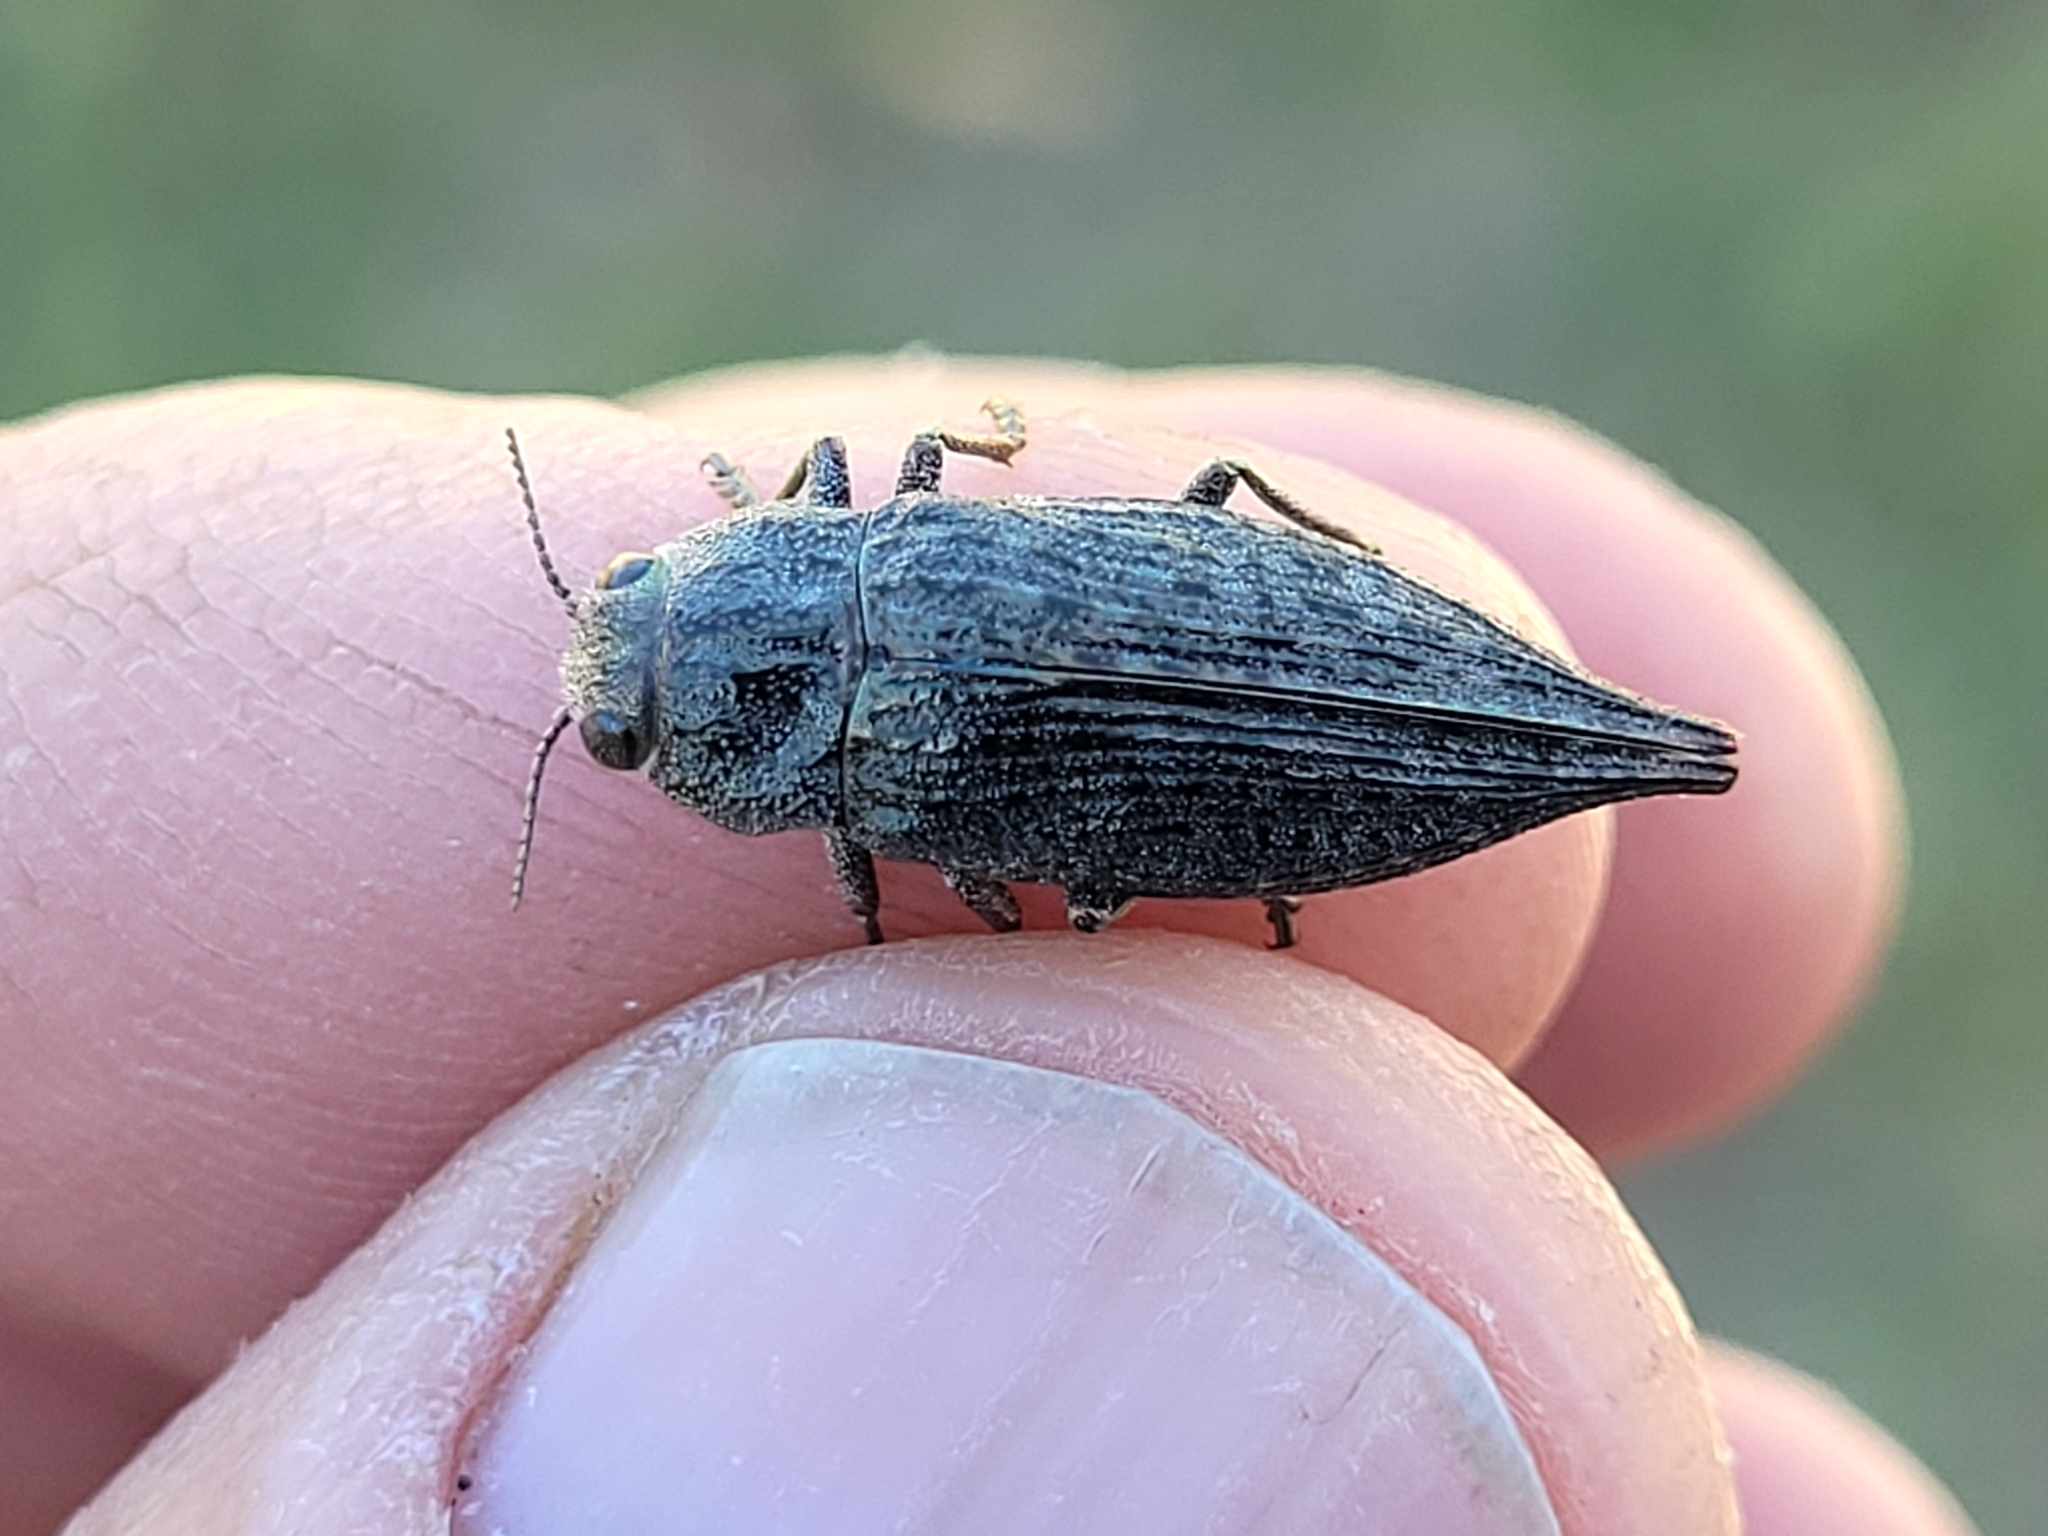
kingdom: Animalia
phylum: Arthropoda
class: Insecta
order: Coleoptera
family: Buprestidae
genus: Dicerca
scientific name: Dicerca tenebrica
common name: Flat-headed poplar borer
